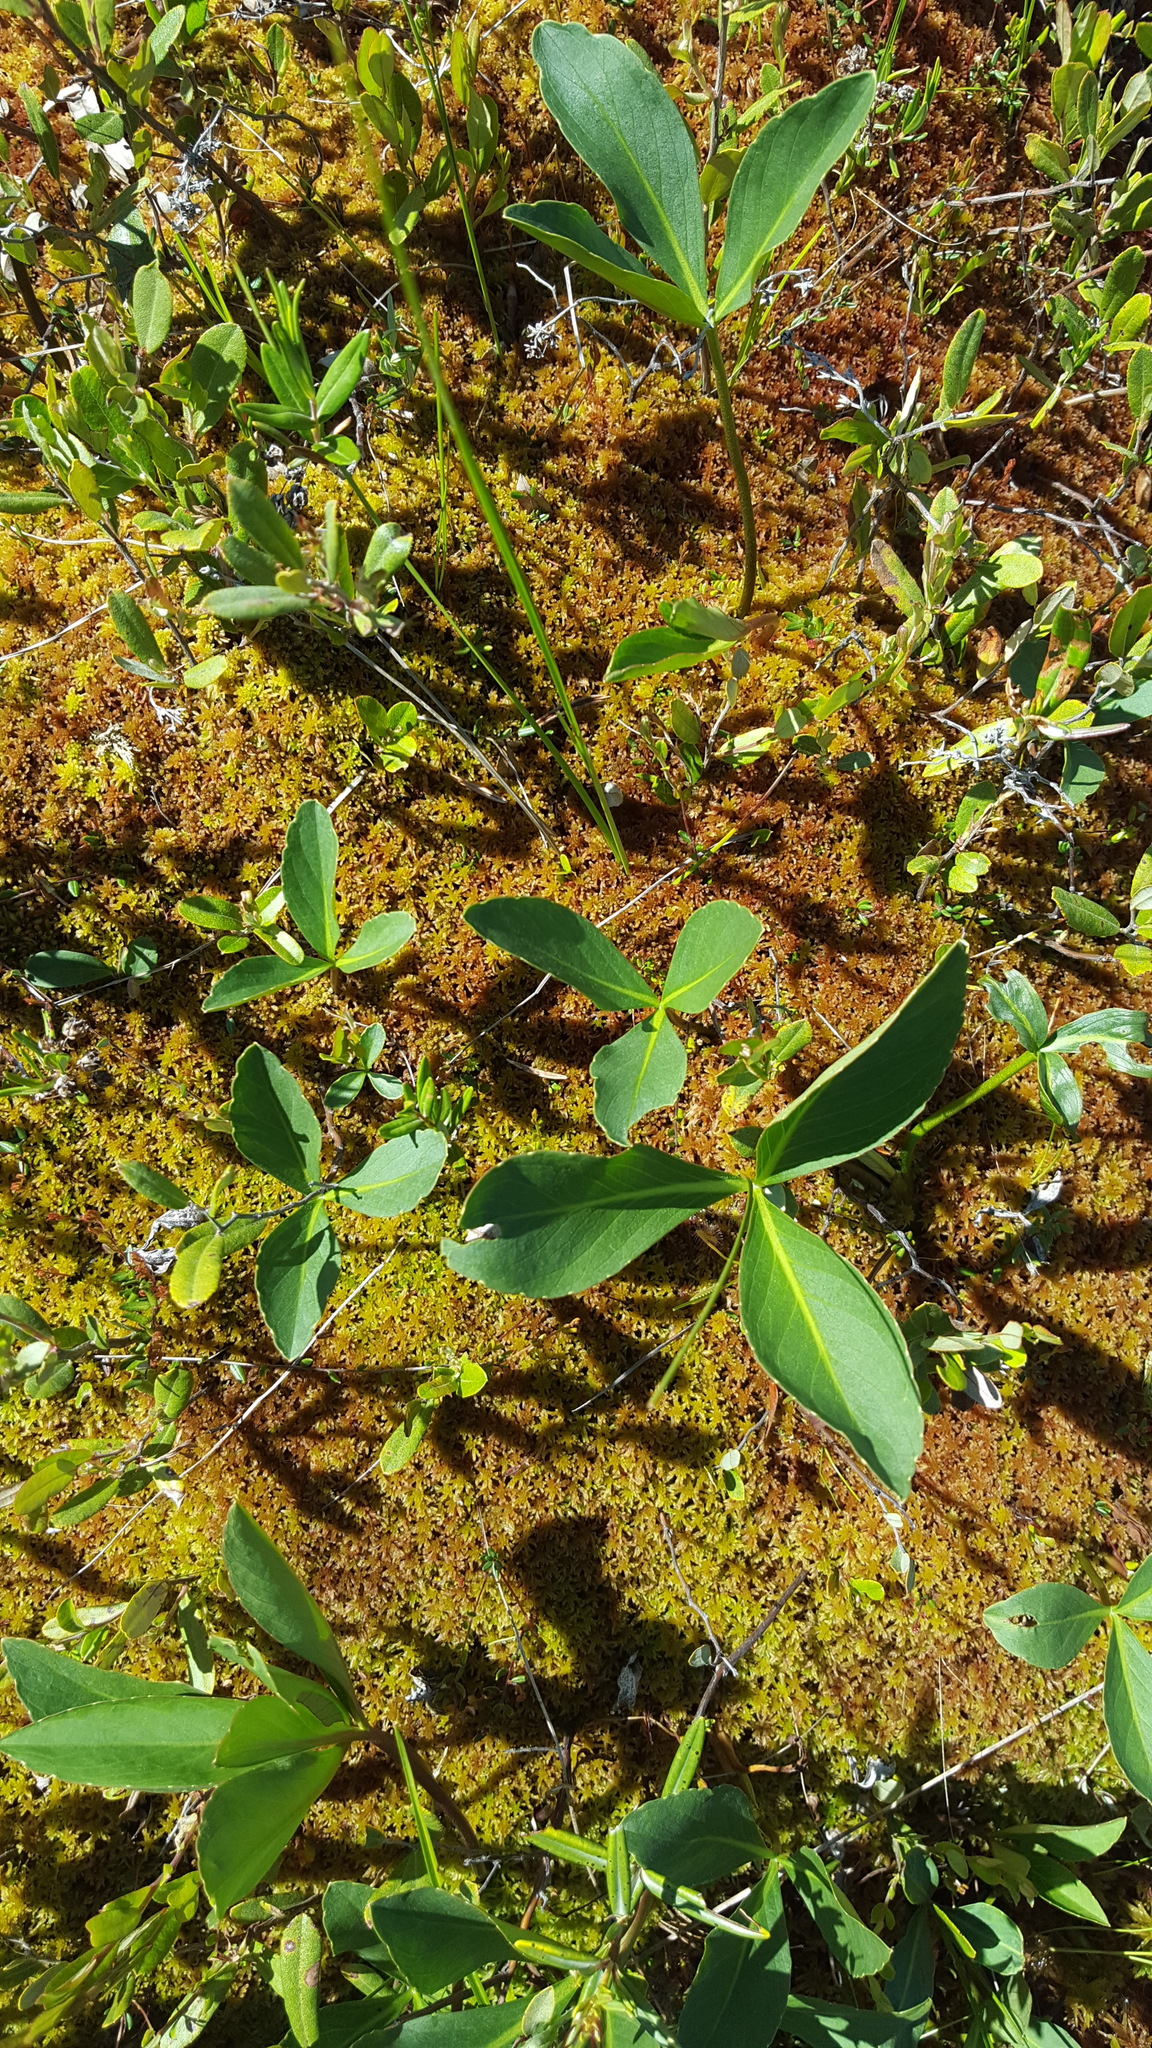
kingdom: Plantae
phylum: Tracheophyta
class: Magnoliopsida
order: Asterales
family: Menyanthaceae
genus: Menyanthes
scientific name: Menyanthes trifoliata
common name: Bogbean
